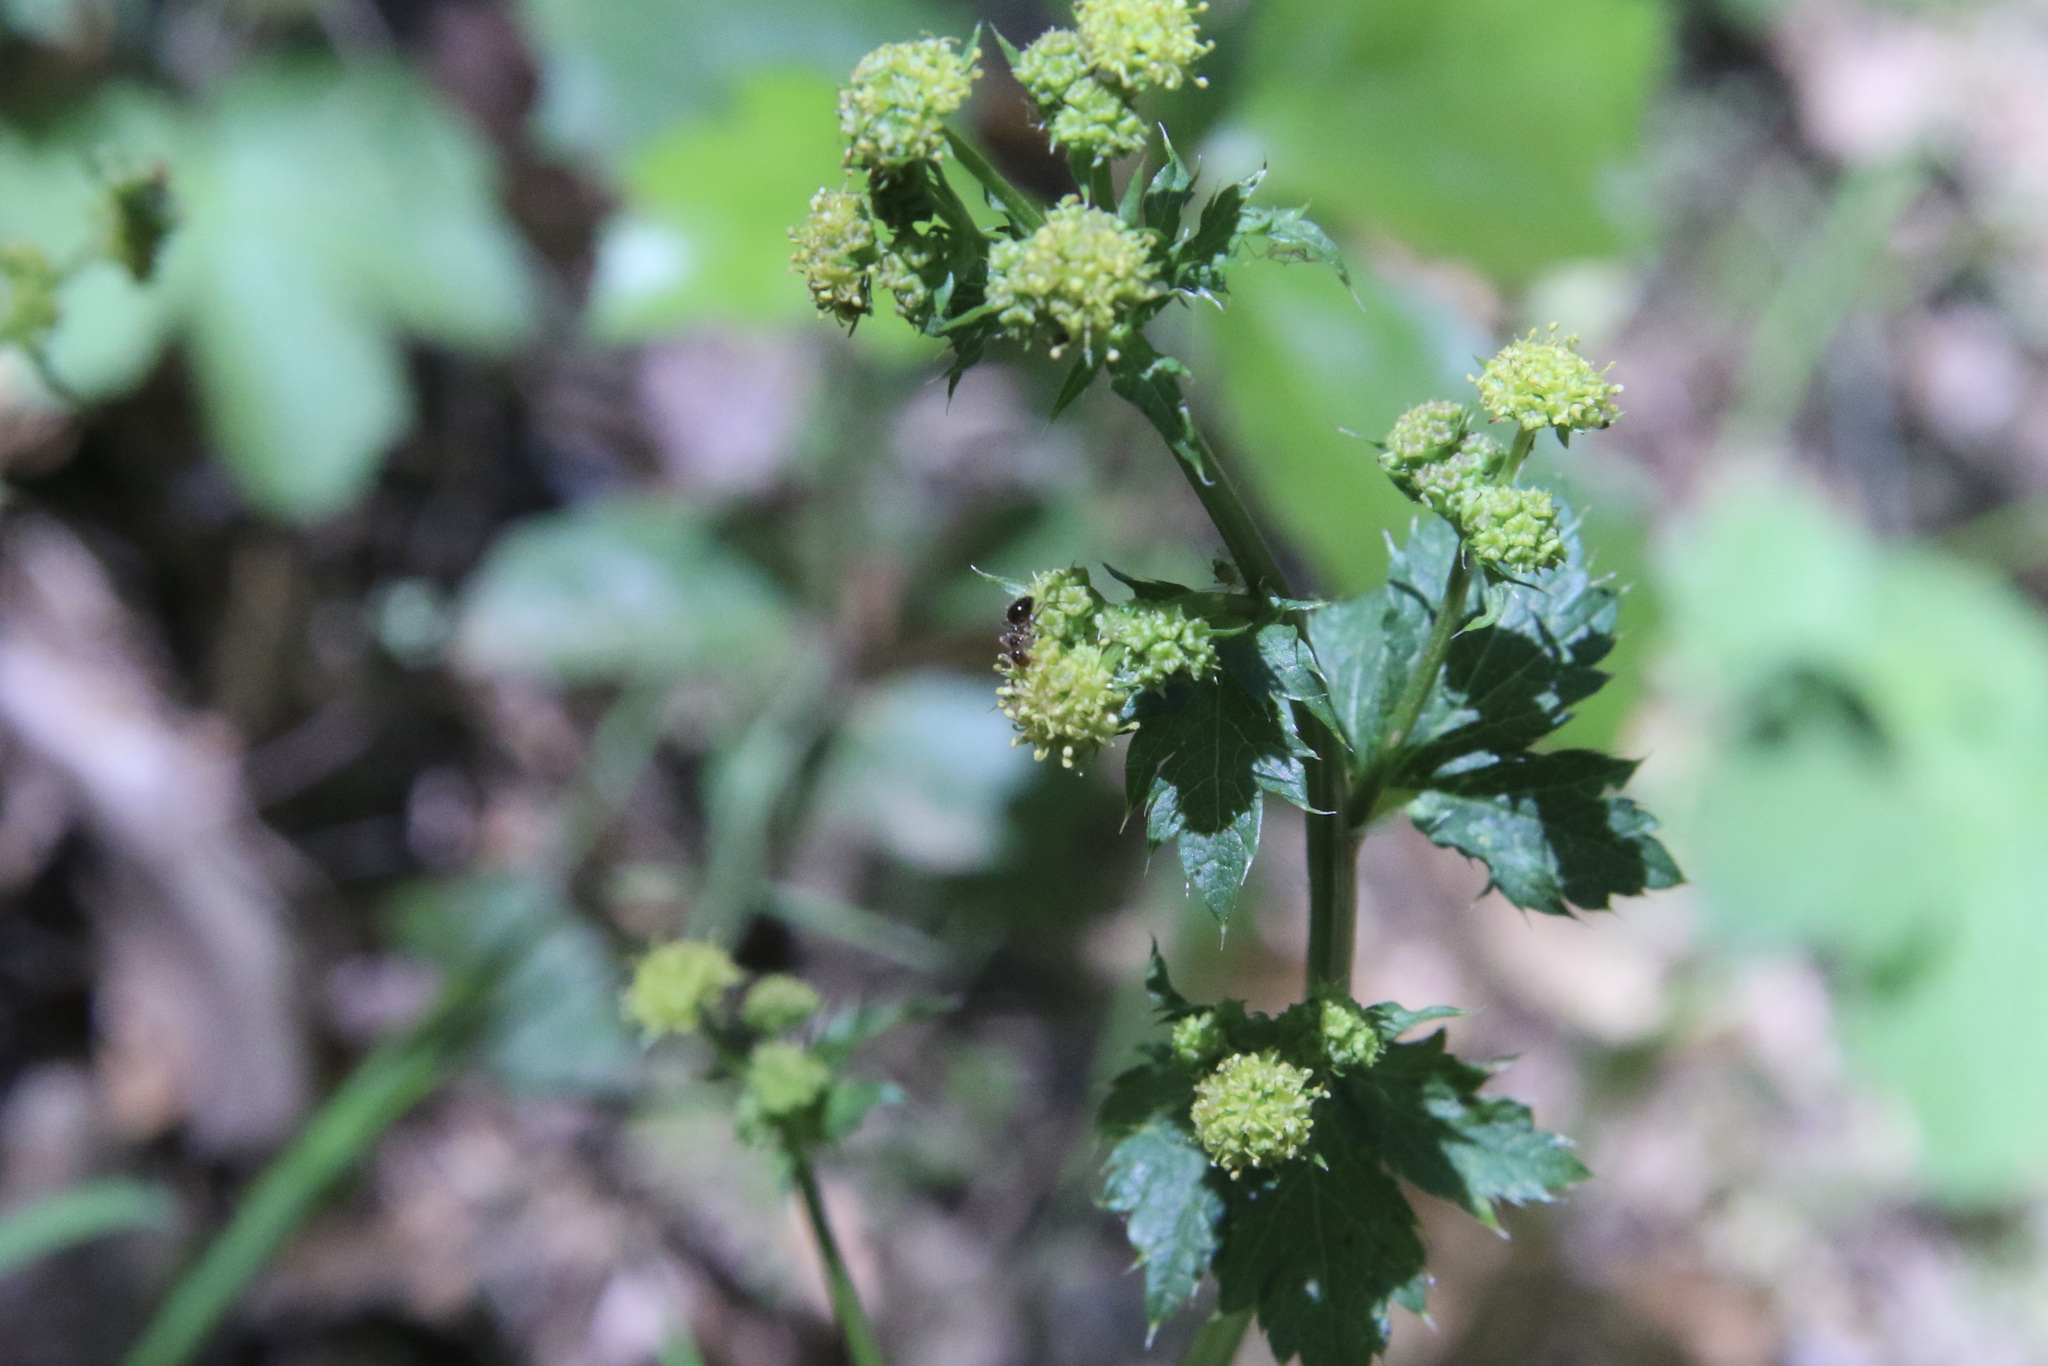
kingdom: Plantae
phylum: Tracheophyta
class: Magnoliopsida
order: Apiales
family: Apiaceae
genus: Sanicula
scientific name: Sanicula crassicaulis
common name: Western snakeroot
